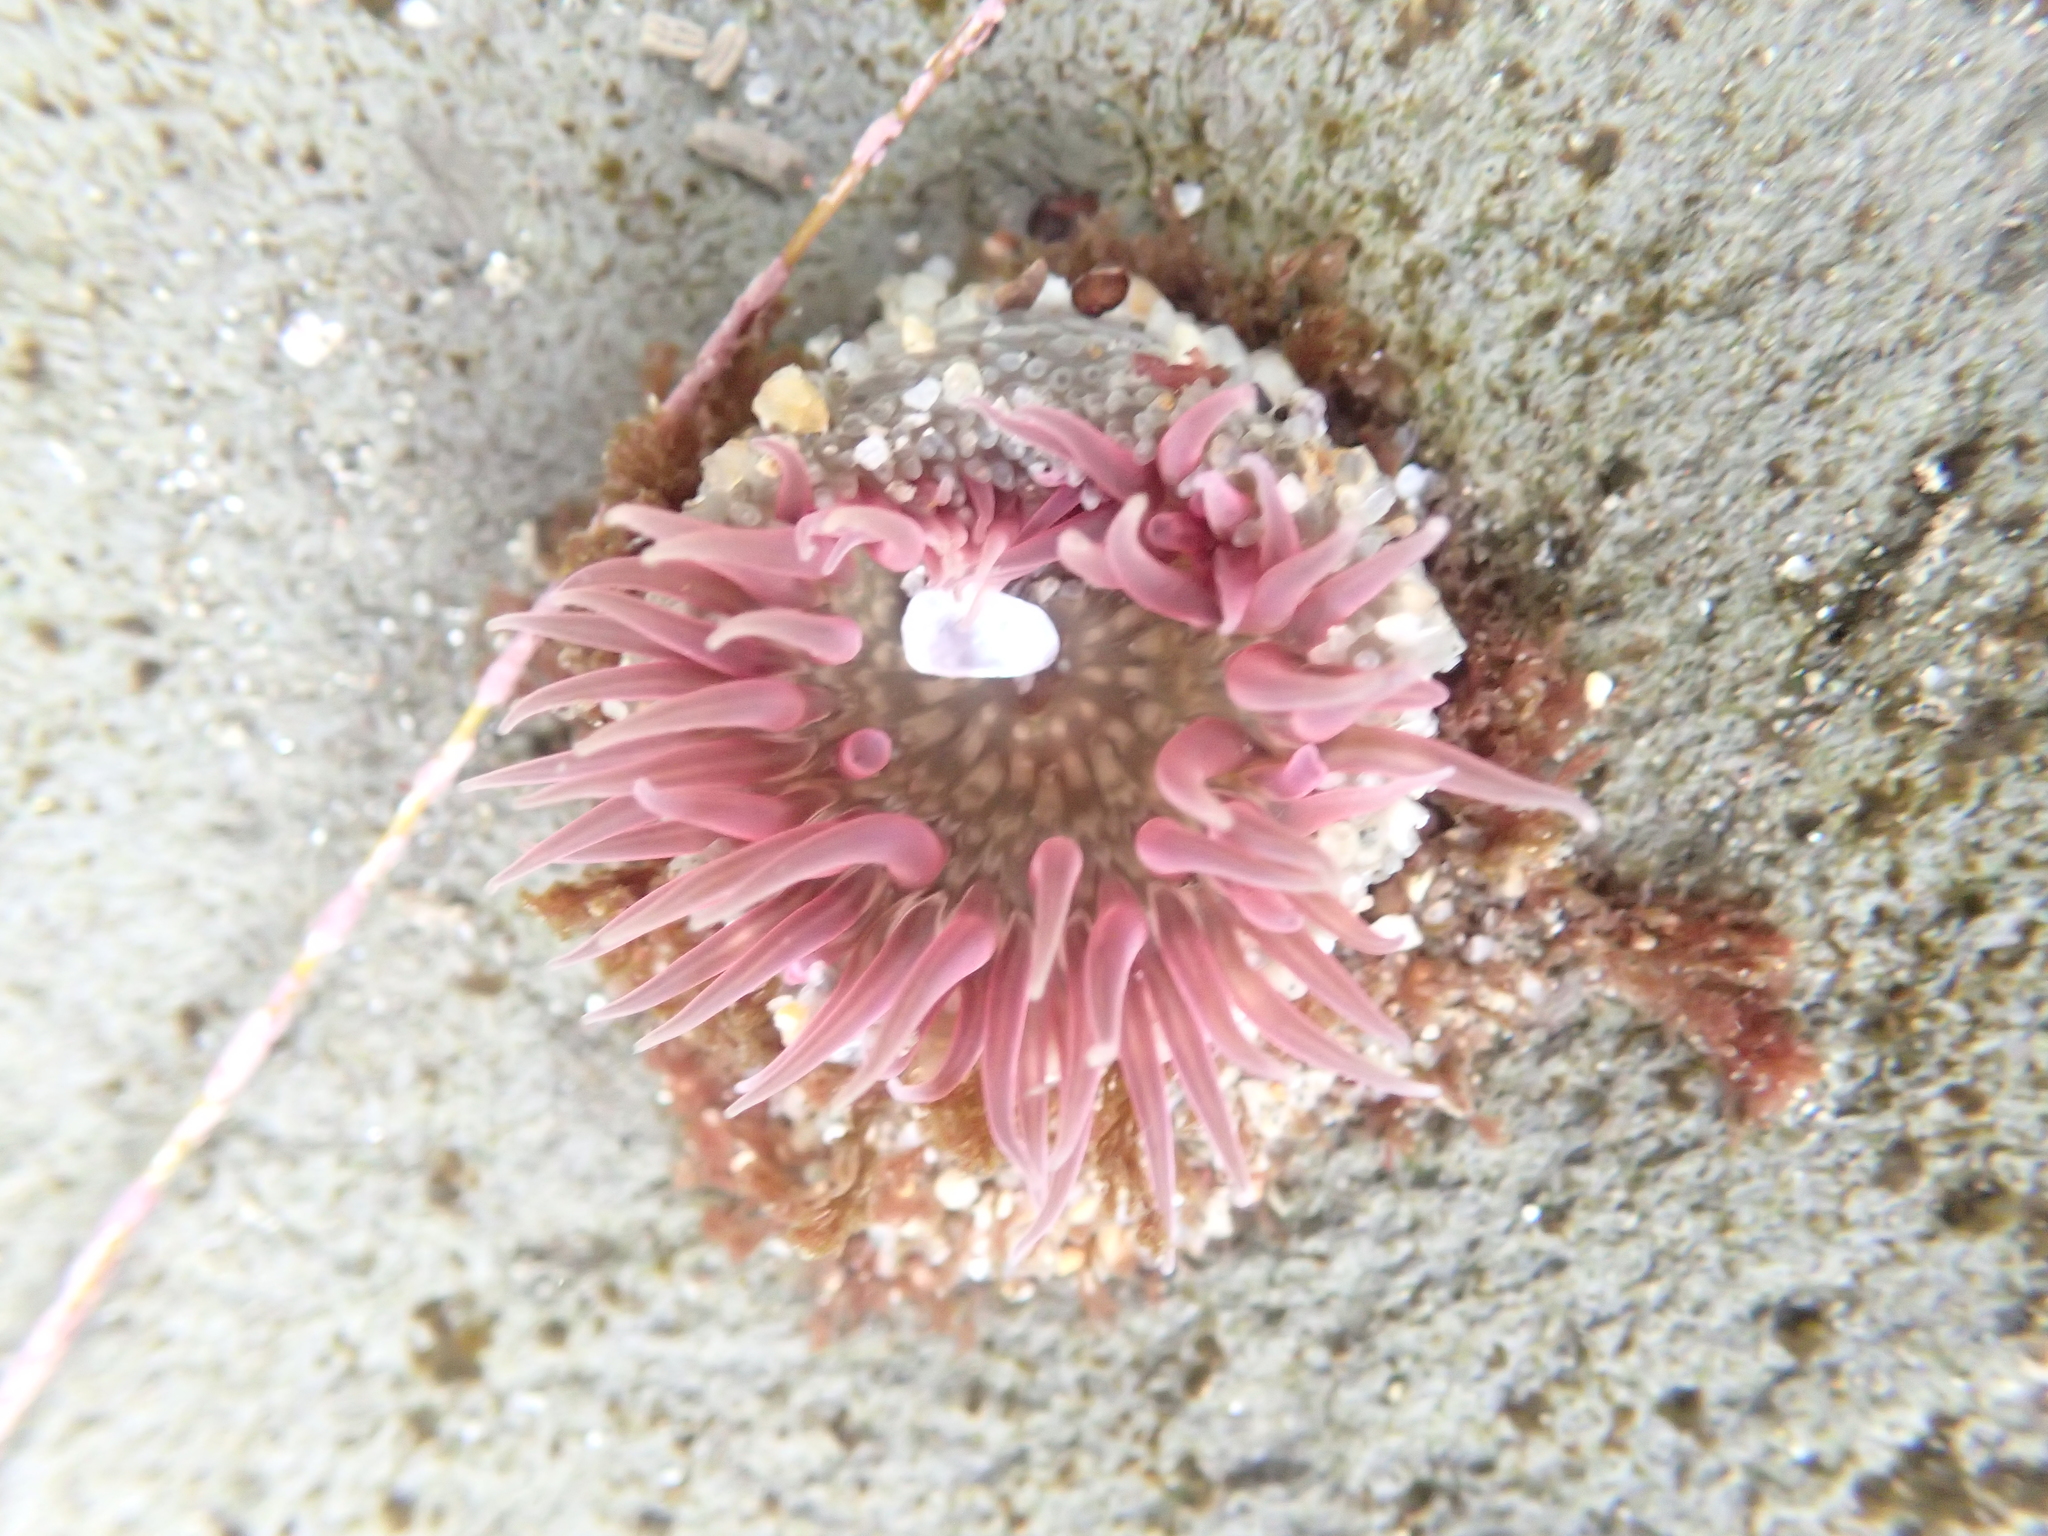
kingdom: Animalia
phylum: Cnidaria
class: Anthozoa
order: Actiniaria
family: Actiniidae
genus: Anthopleura
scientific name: Anthopleura artemisia
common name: Buried sea anemone
